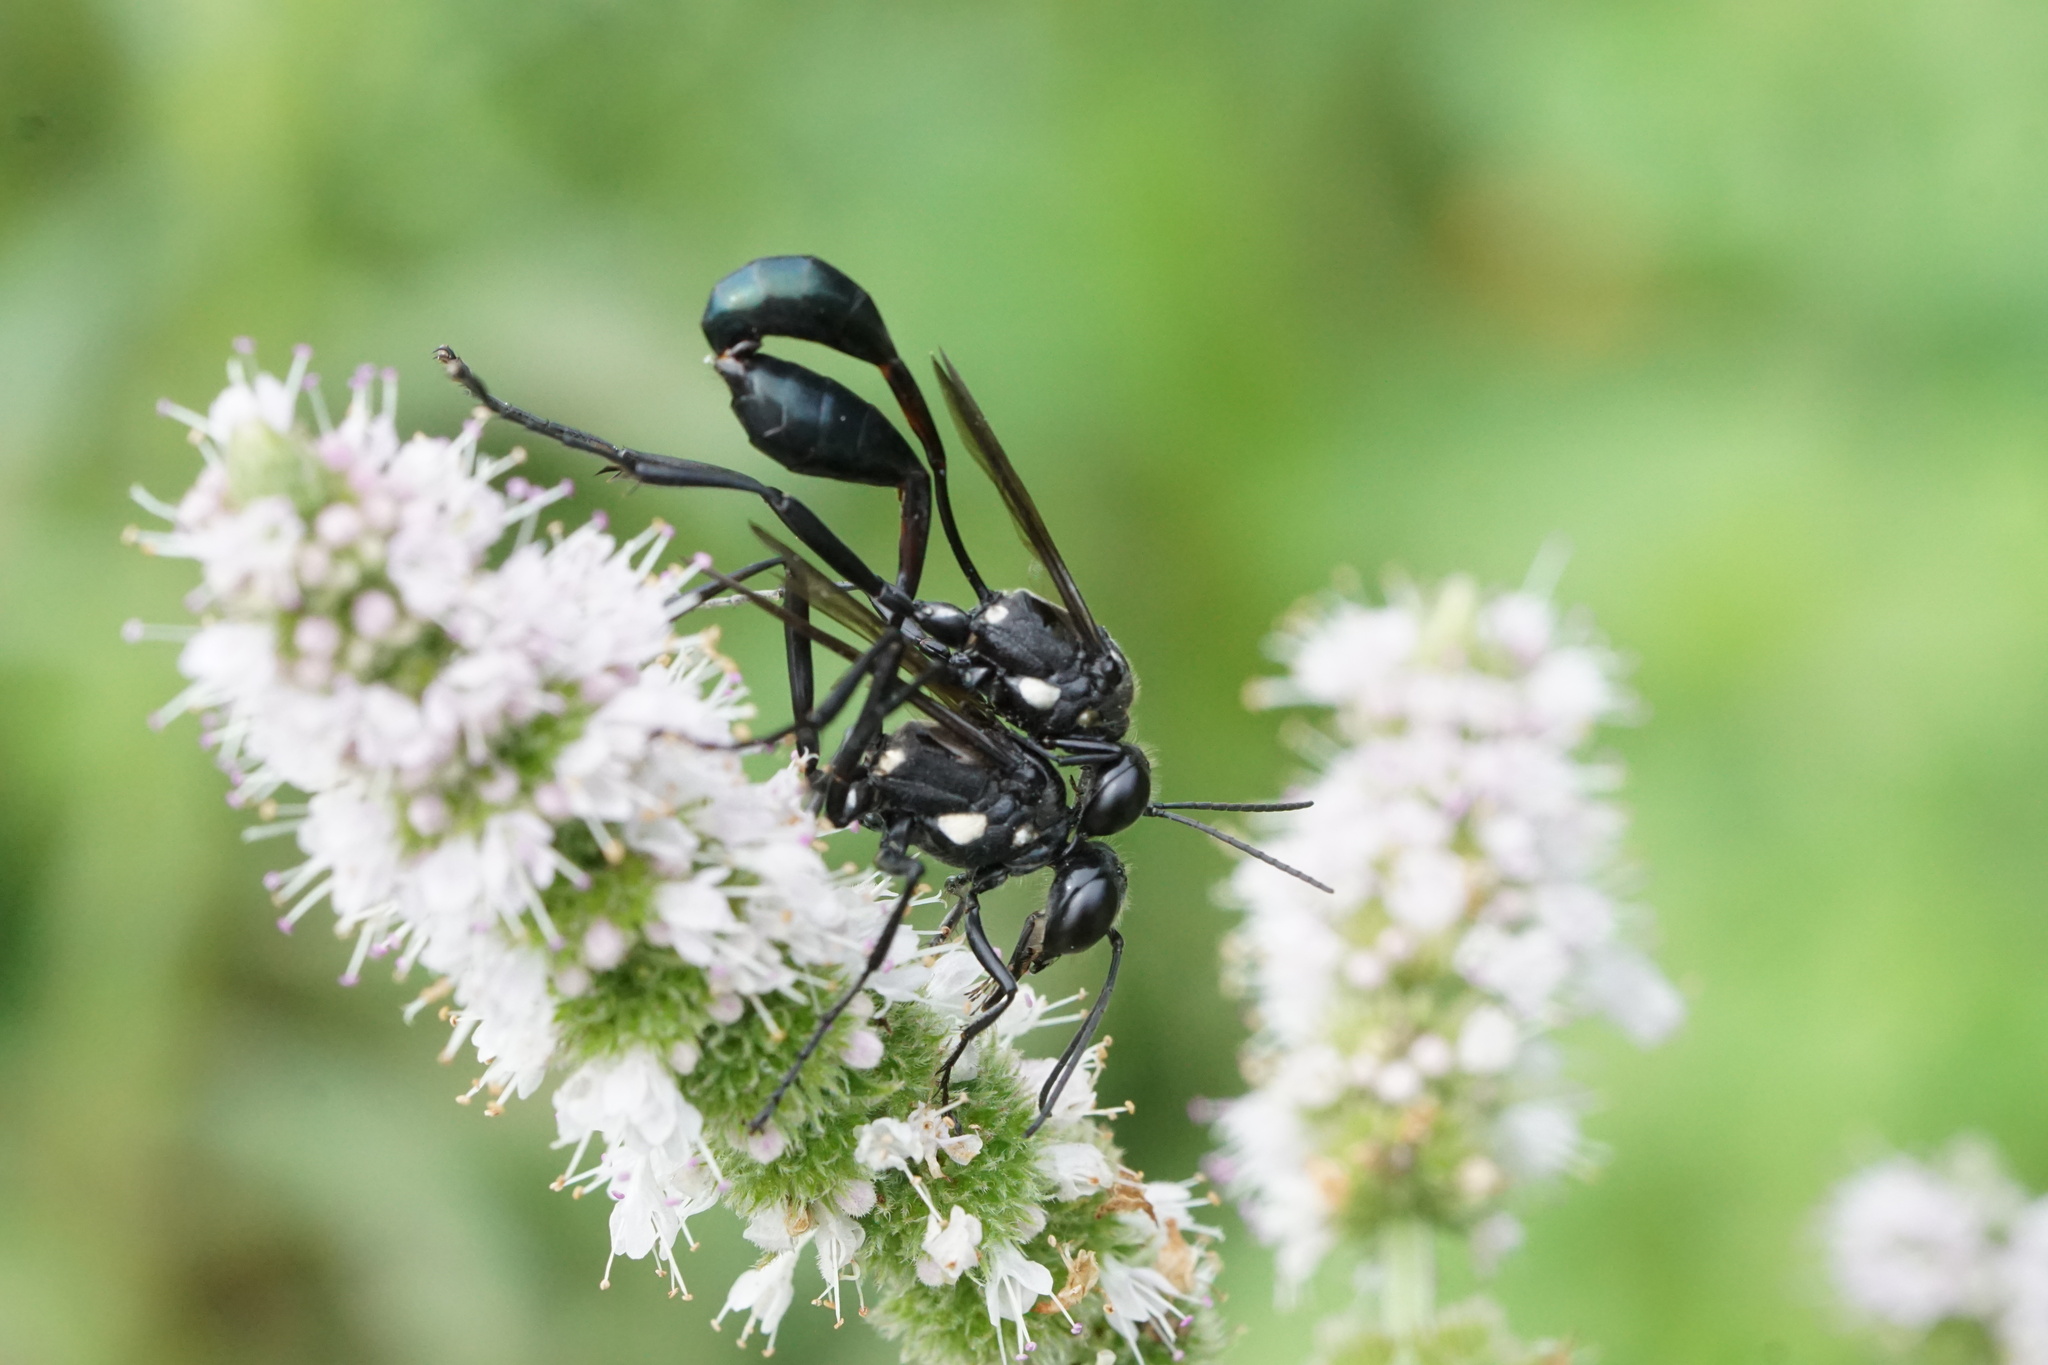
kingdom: Animalia
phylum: Arthropoda
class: Insecta
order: Hymenoptera
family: Sphecidae
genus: Eremnophila
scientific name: Eremnophila aureonotata
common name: Gold-marked thread-waisted wasp
